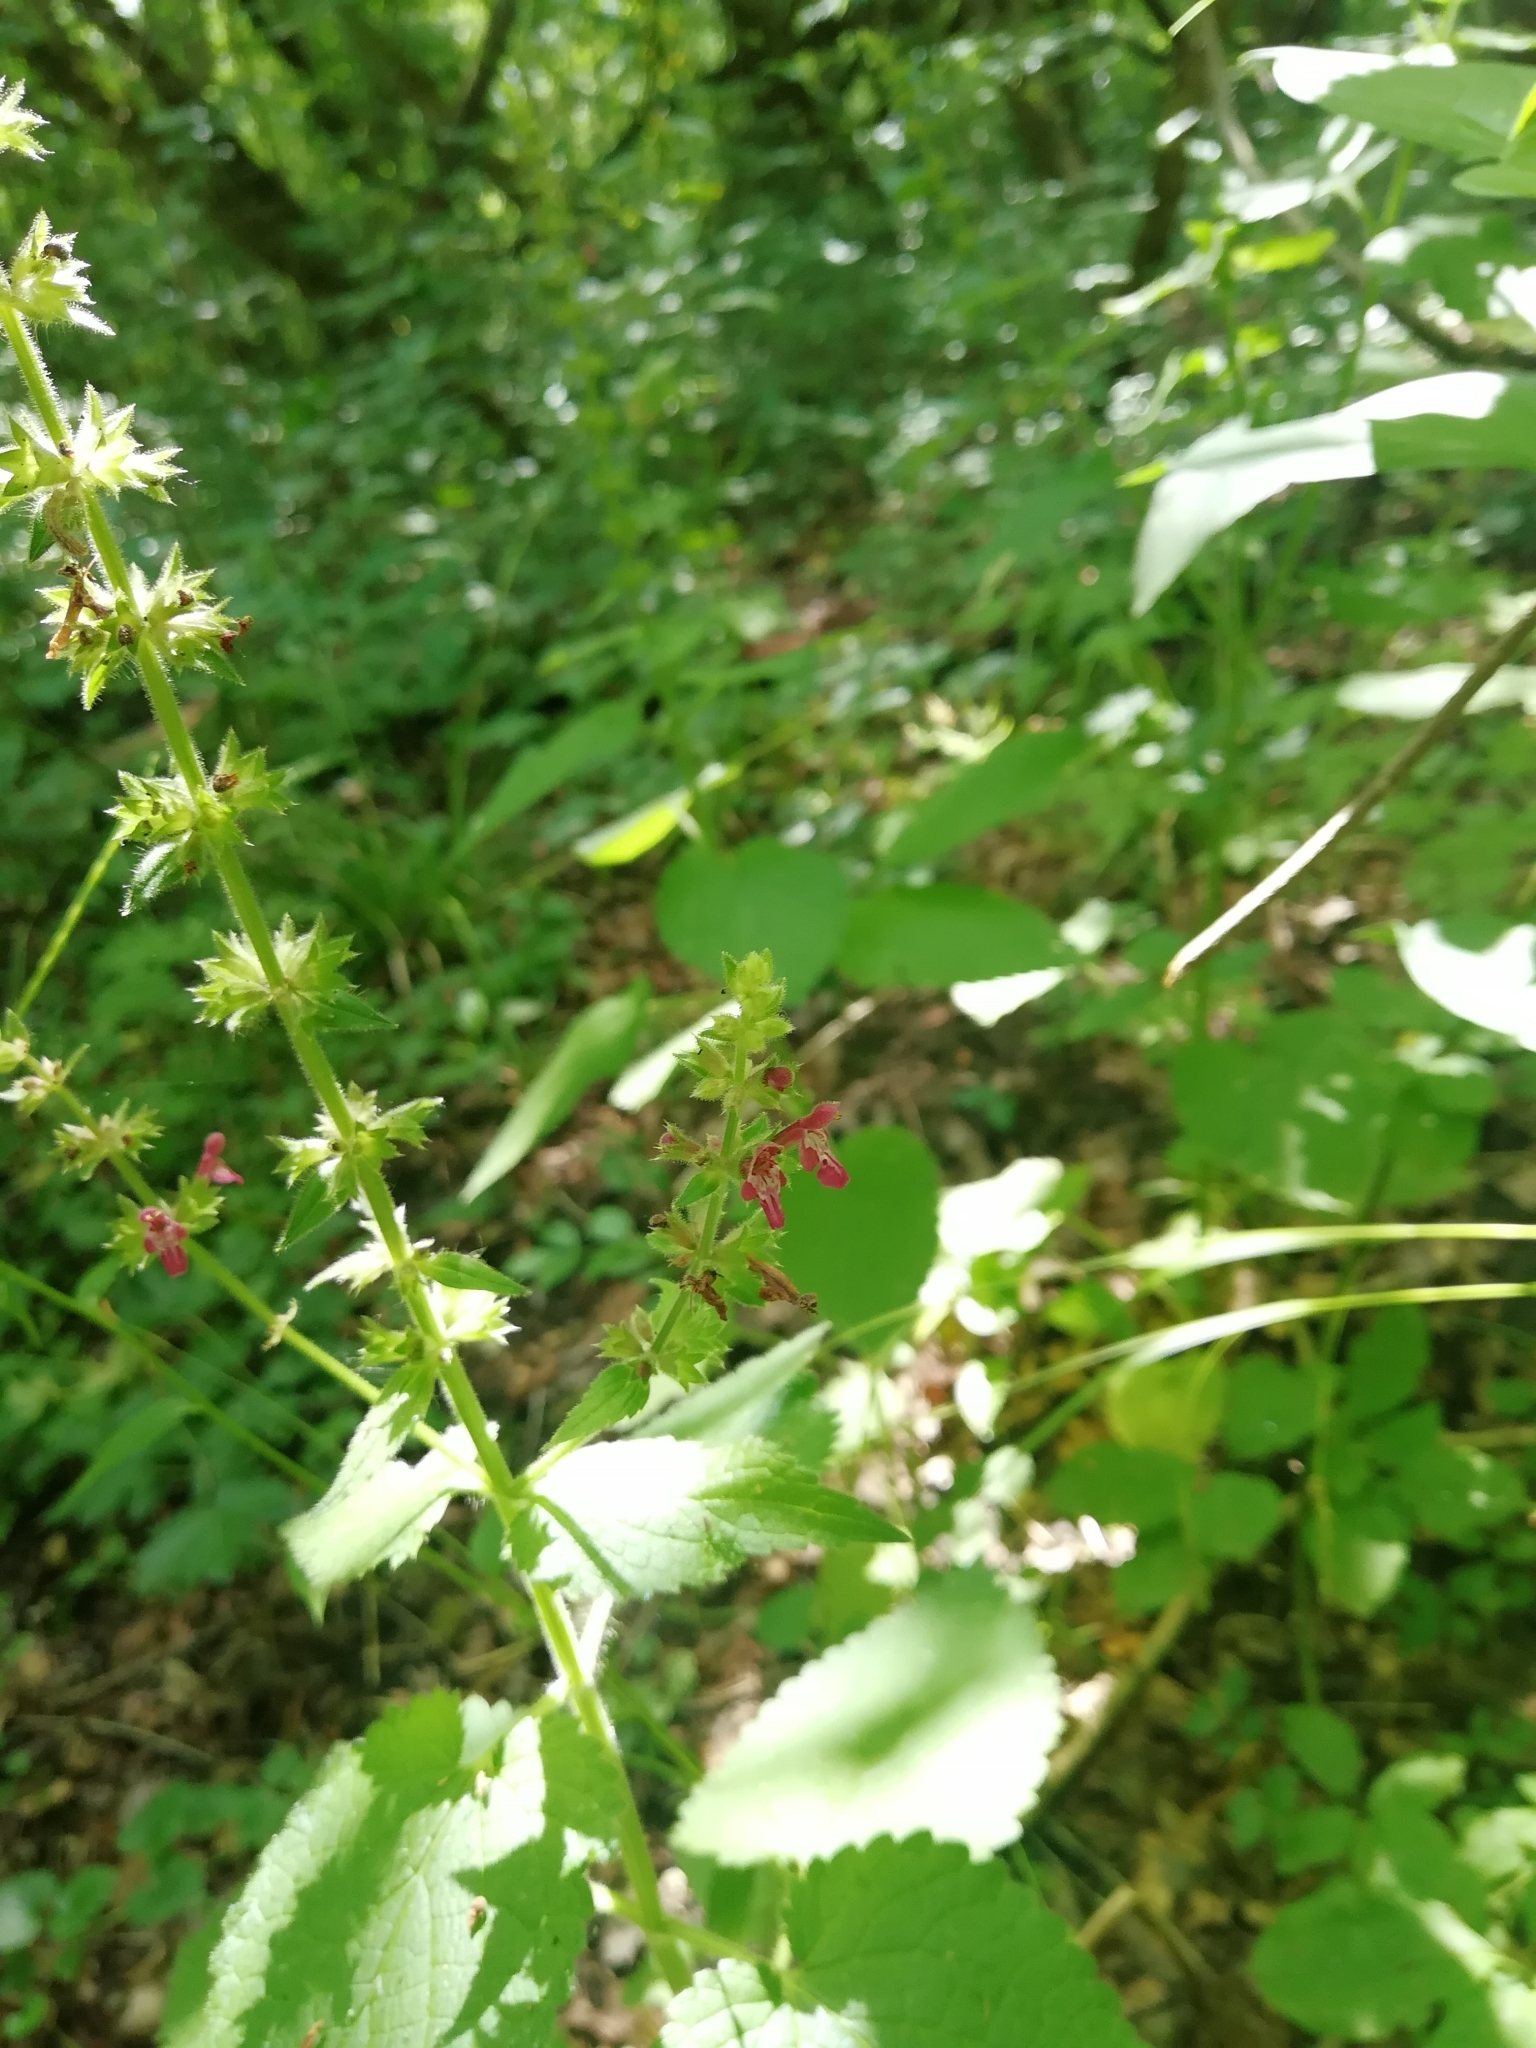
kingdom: Plantae
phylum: Tracheophyta
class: Magnoliopsida
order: Lamiales
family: Lamiaceae
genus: Stachys
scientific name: Stachys sylvatica
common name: Hedge woundwort
